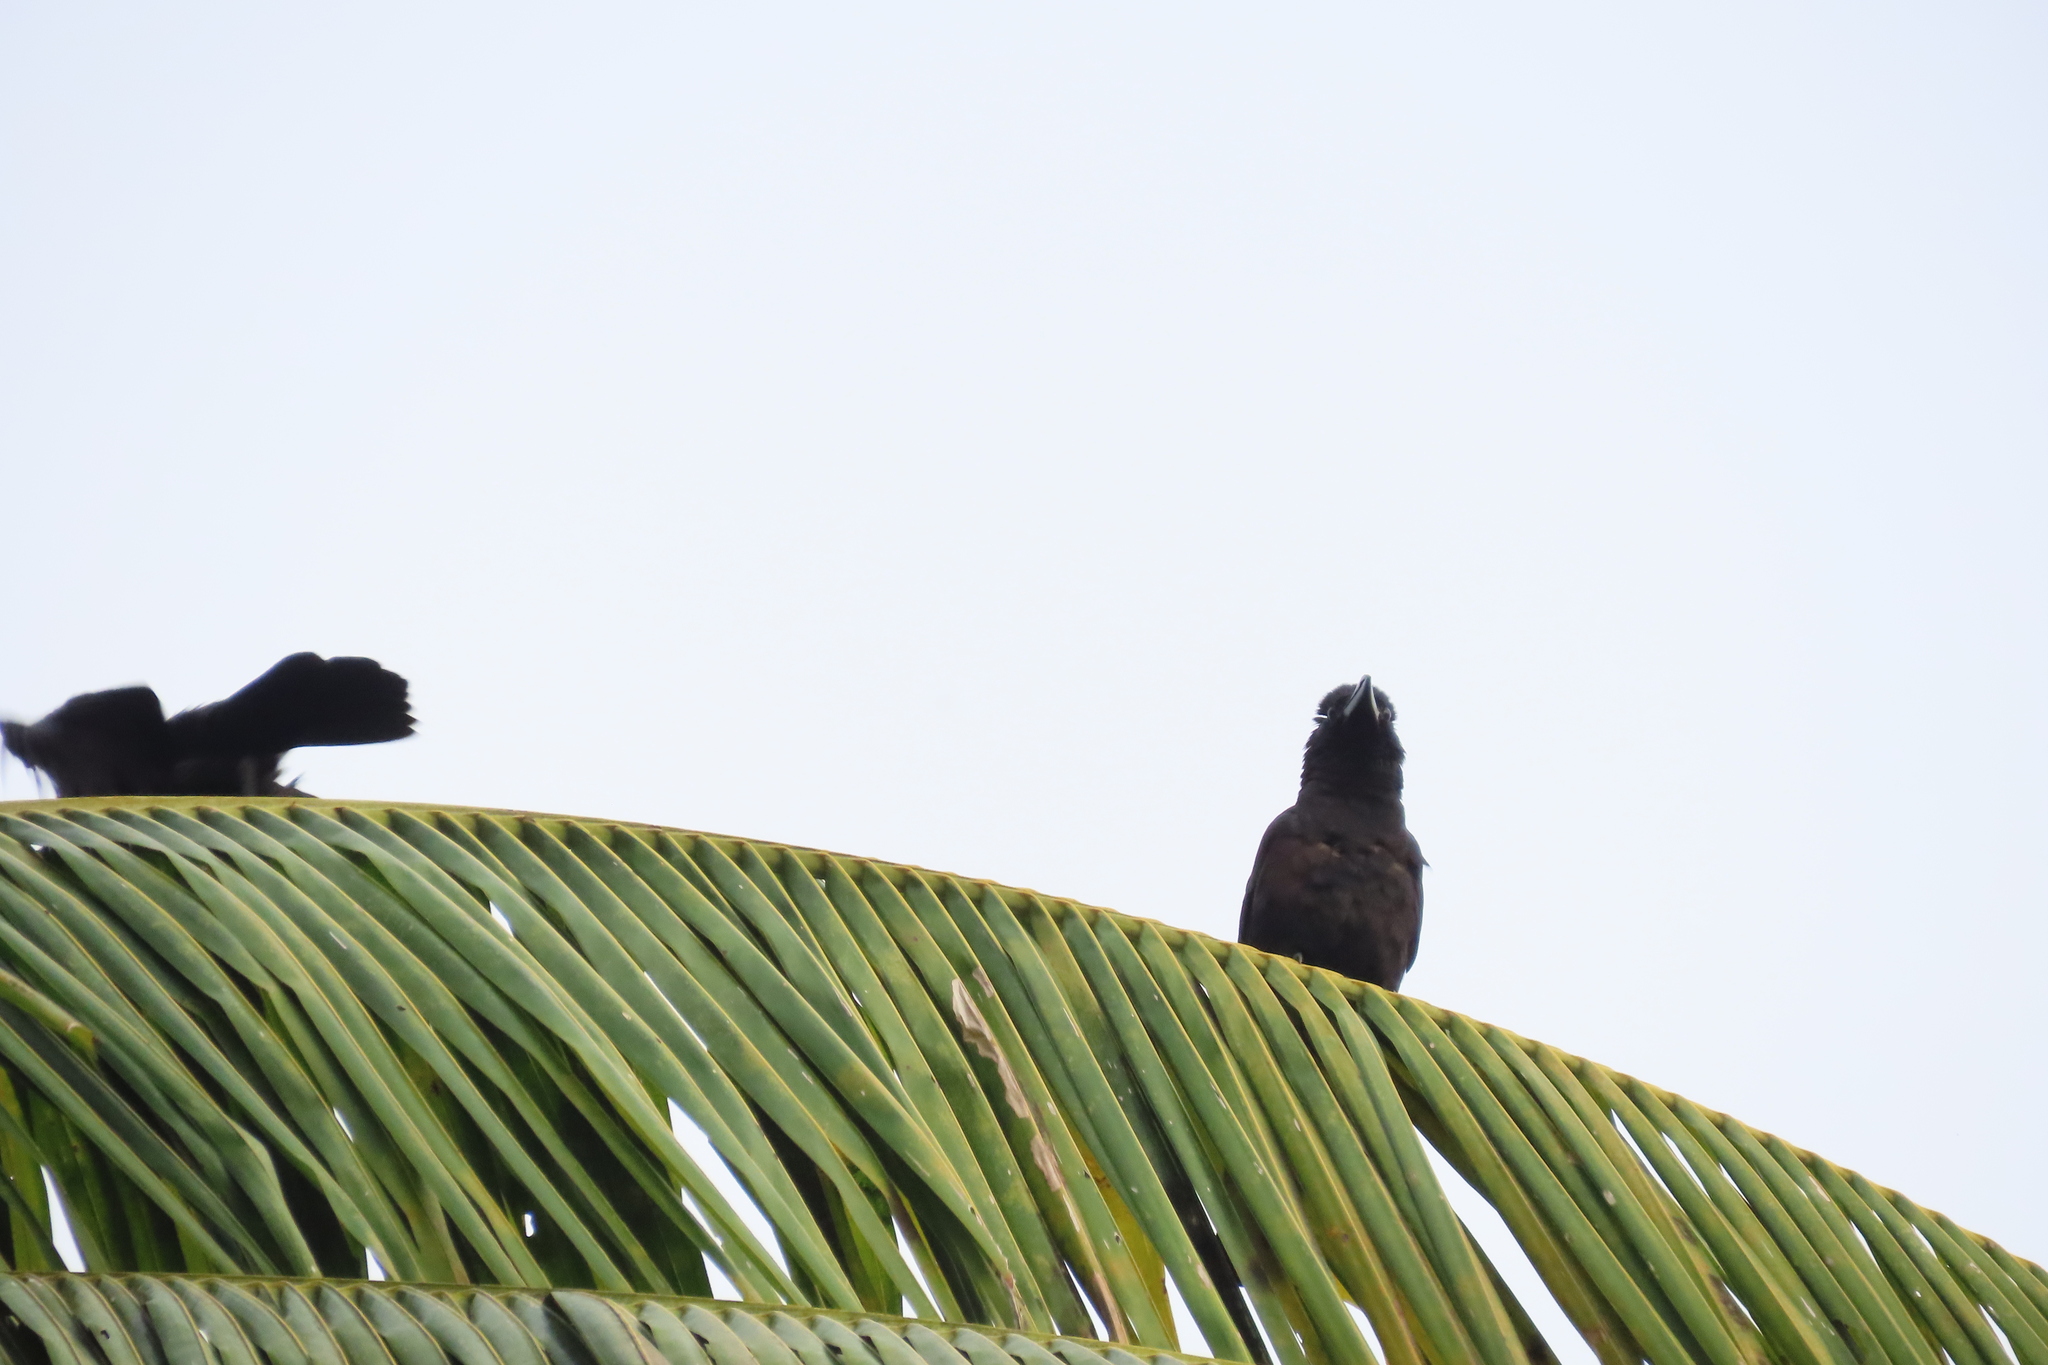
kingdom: Animalia
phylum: Chordata
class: Aves
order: Passeriformes
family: Corvidae
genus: Corvus
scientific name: Corvus macrorhynchos
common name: Large-billed crow
